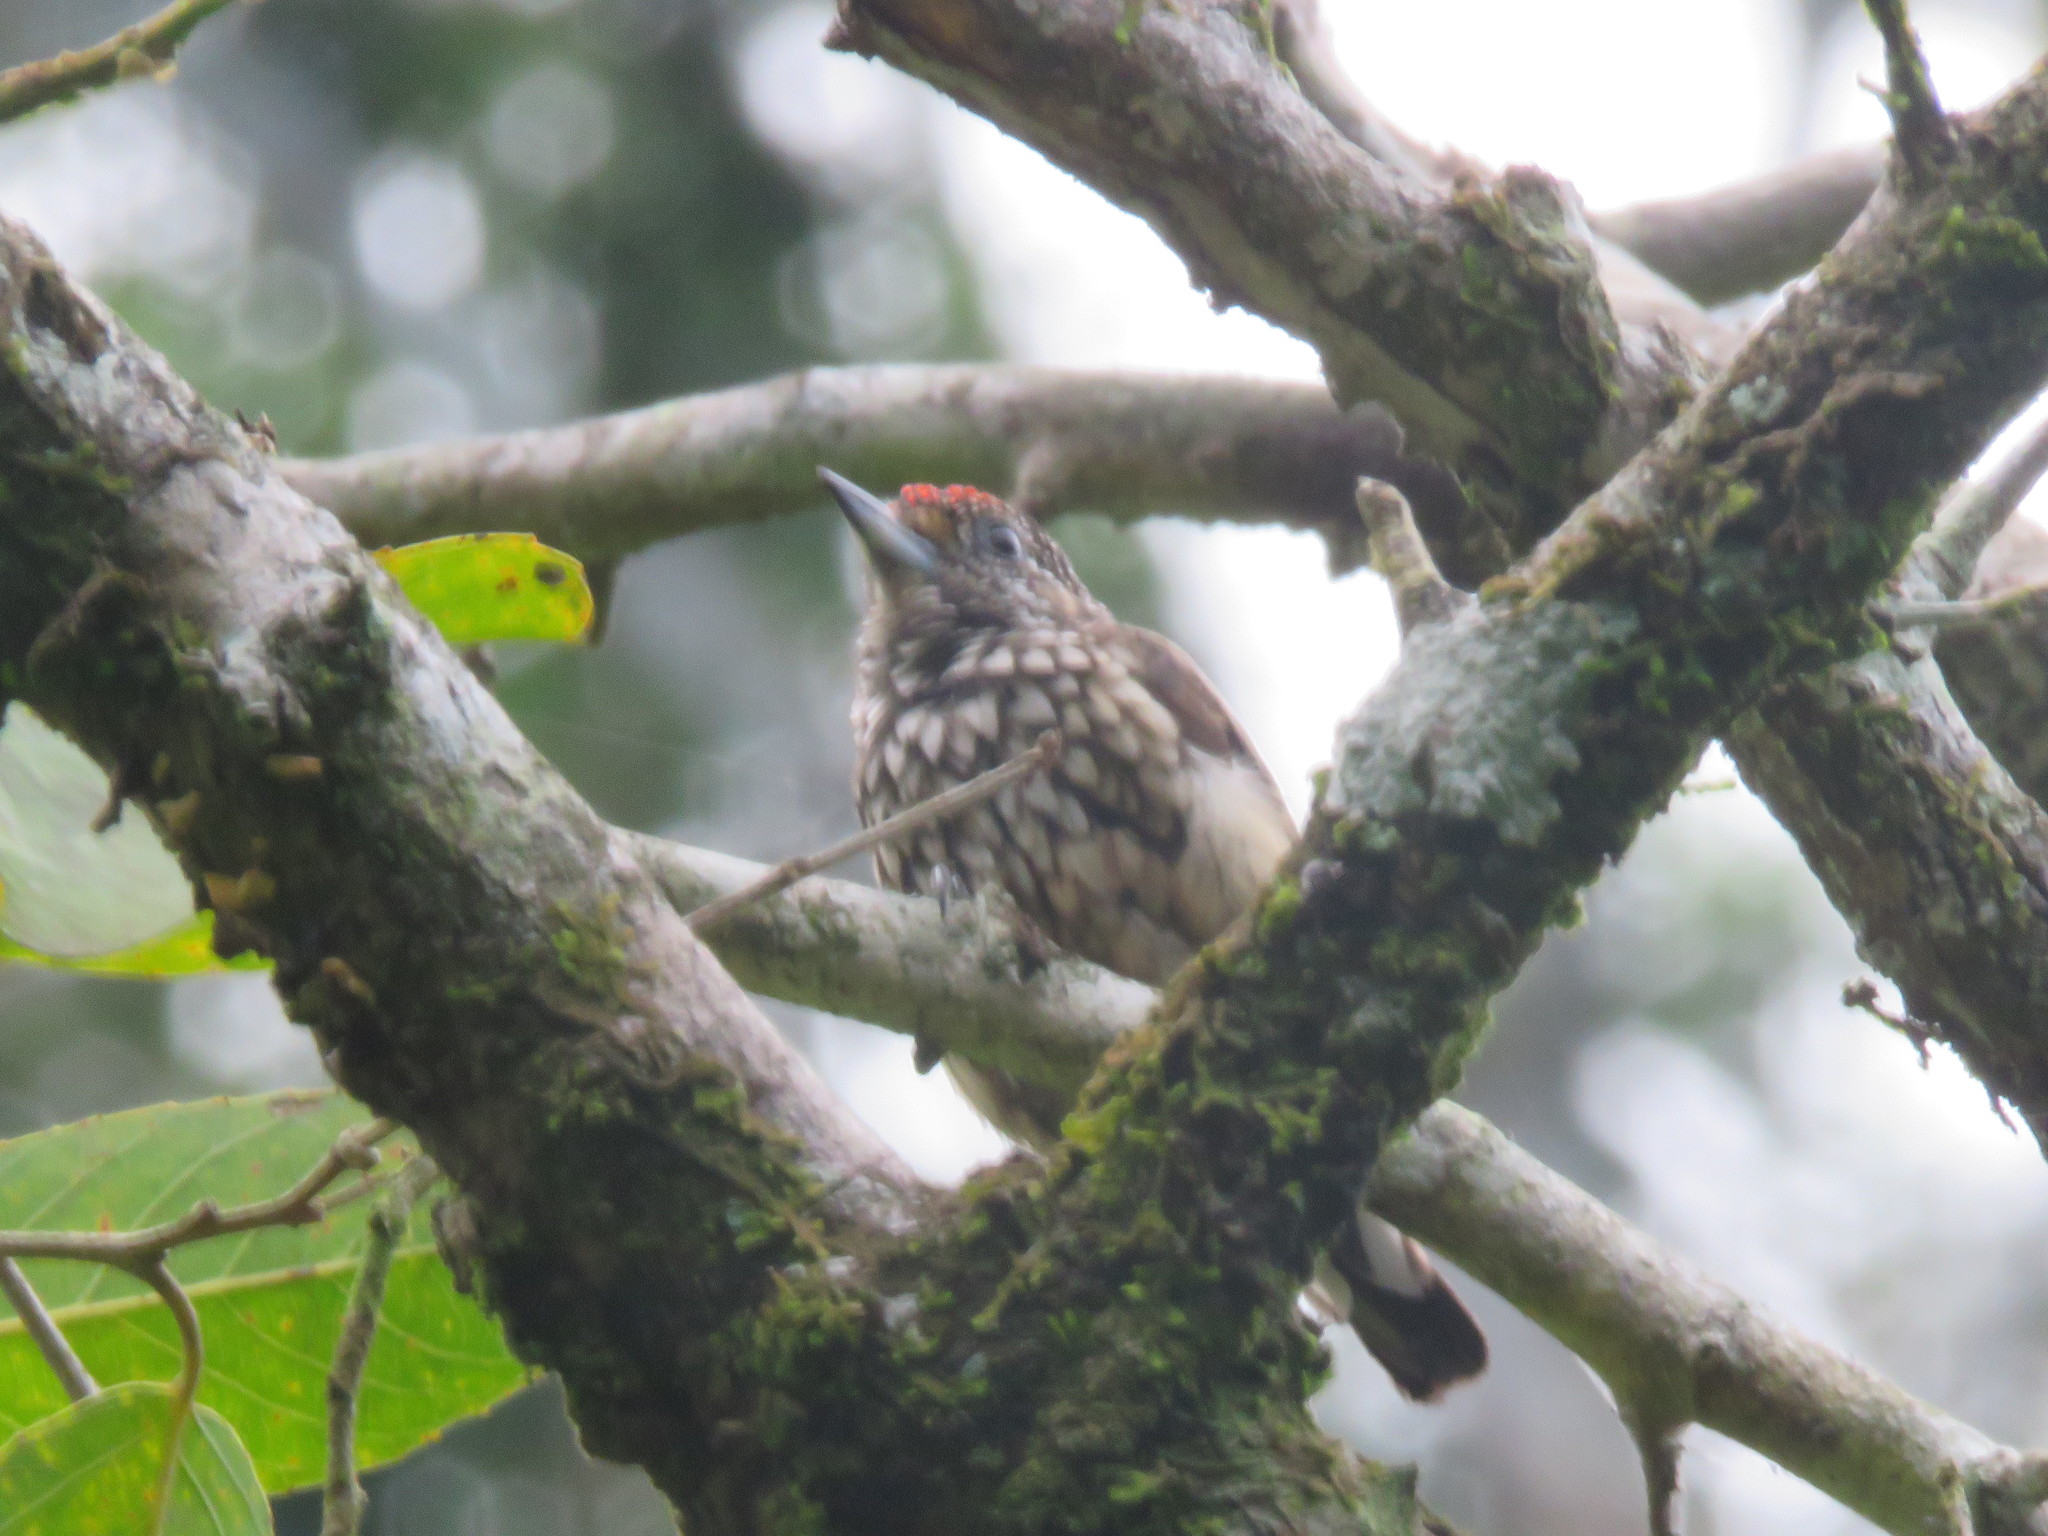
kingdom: Animalia
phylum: Chordata
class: Aves
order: Piciformes
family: Picidae
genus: Picumnus
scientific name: Picumnus albosquamatus
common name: White-wedged piculet
